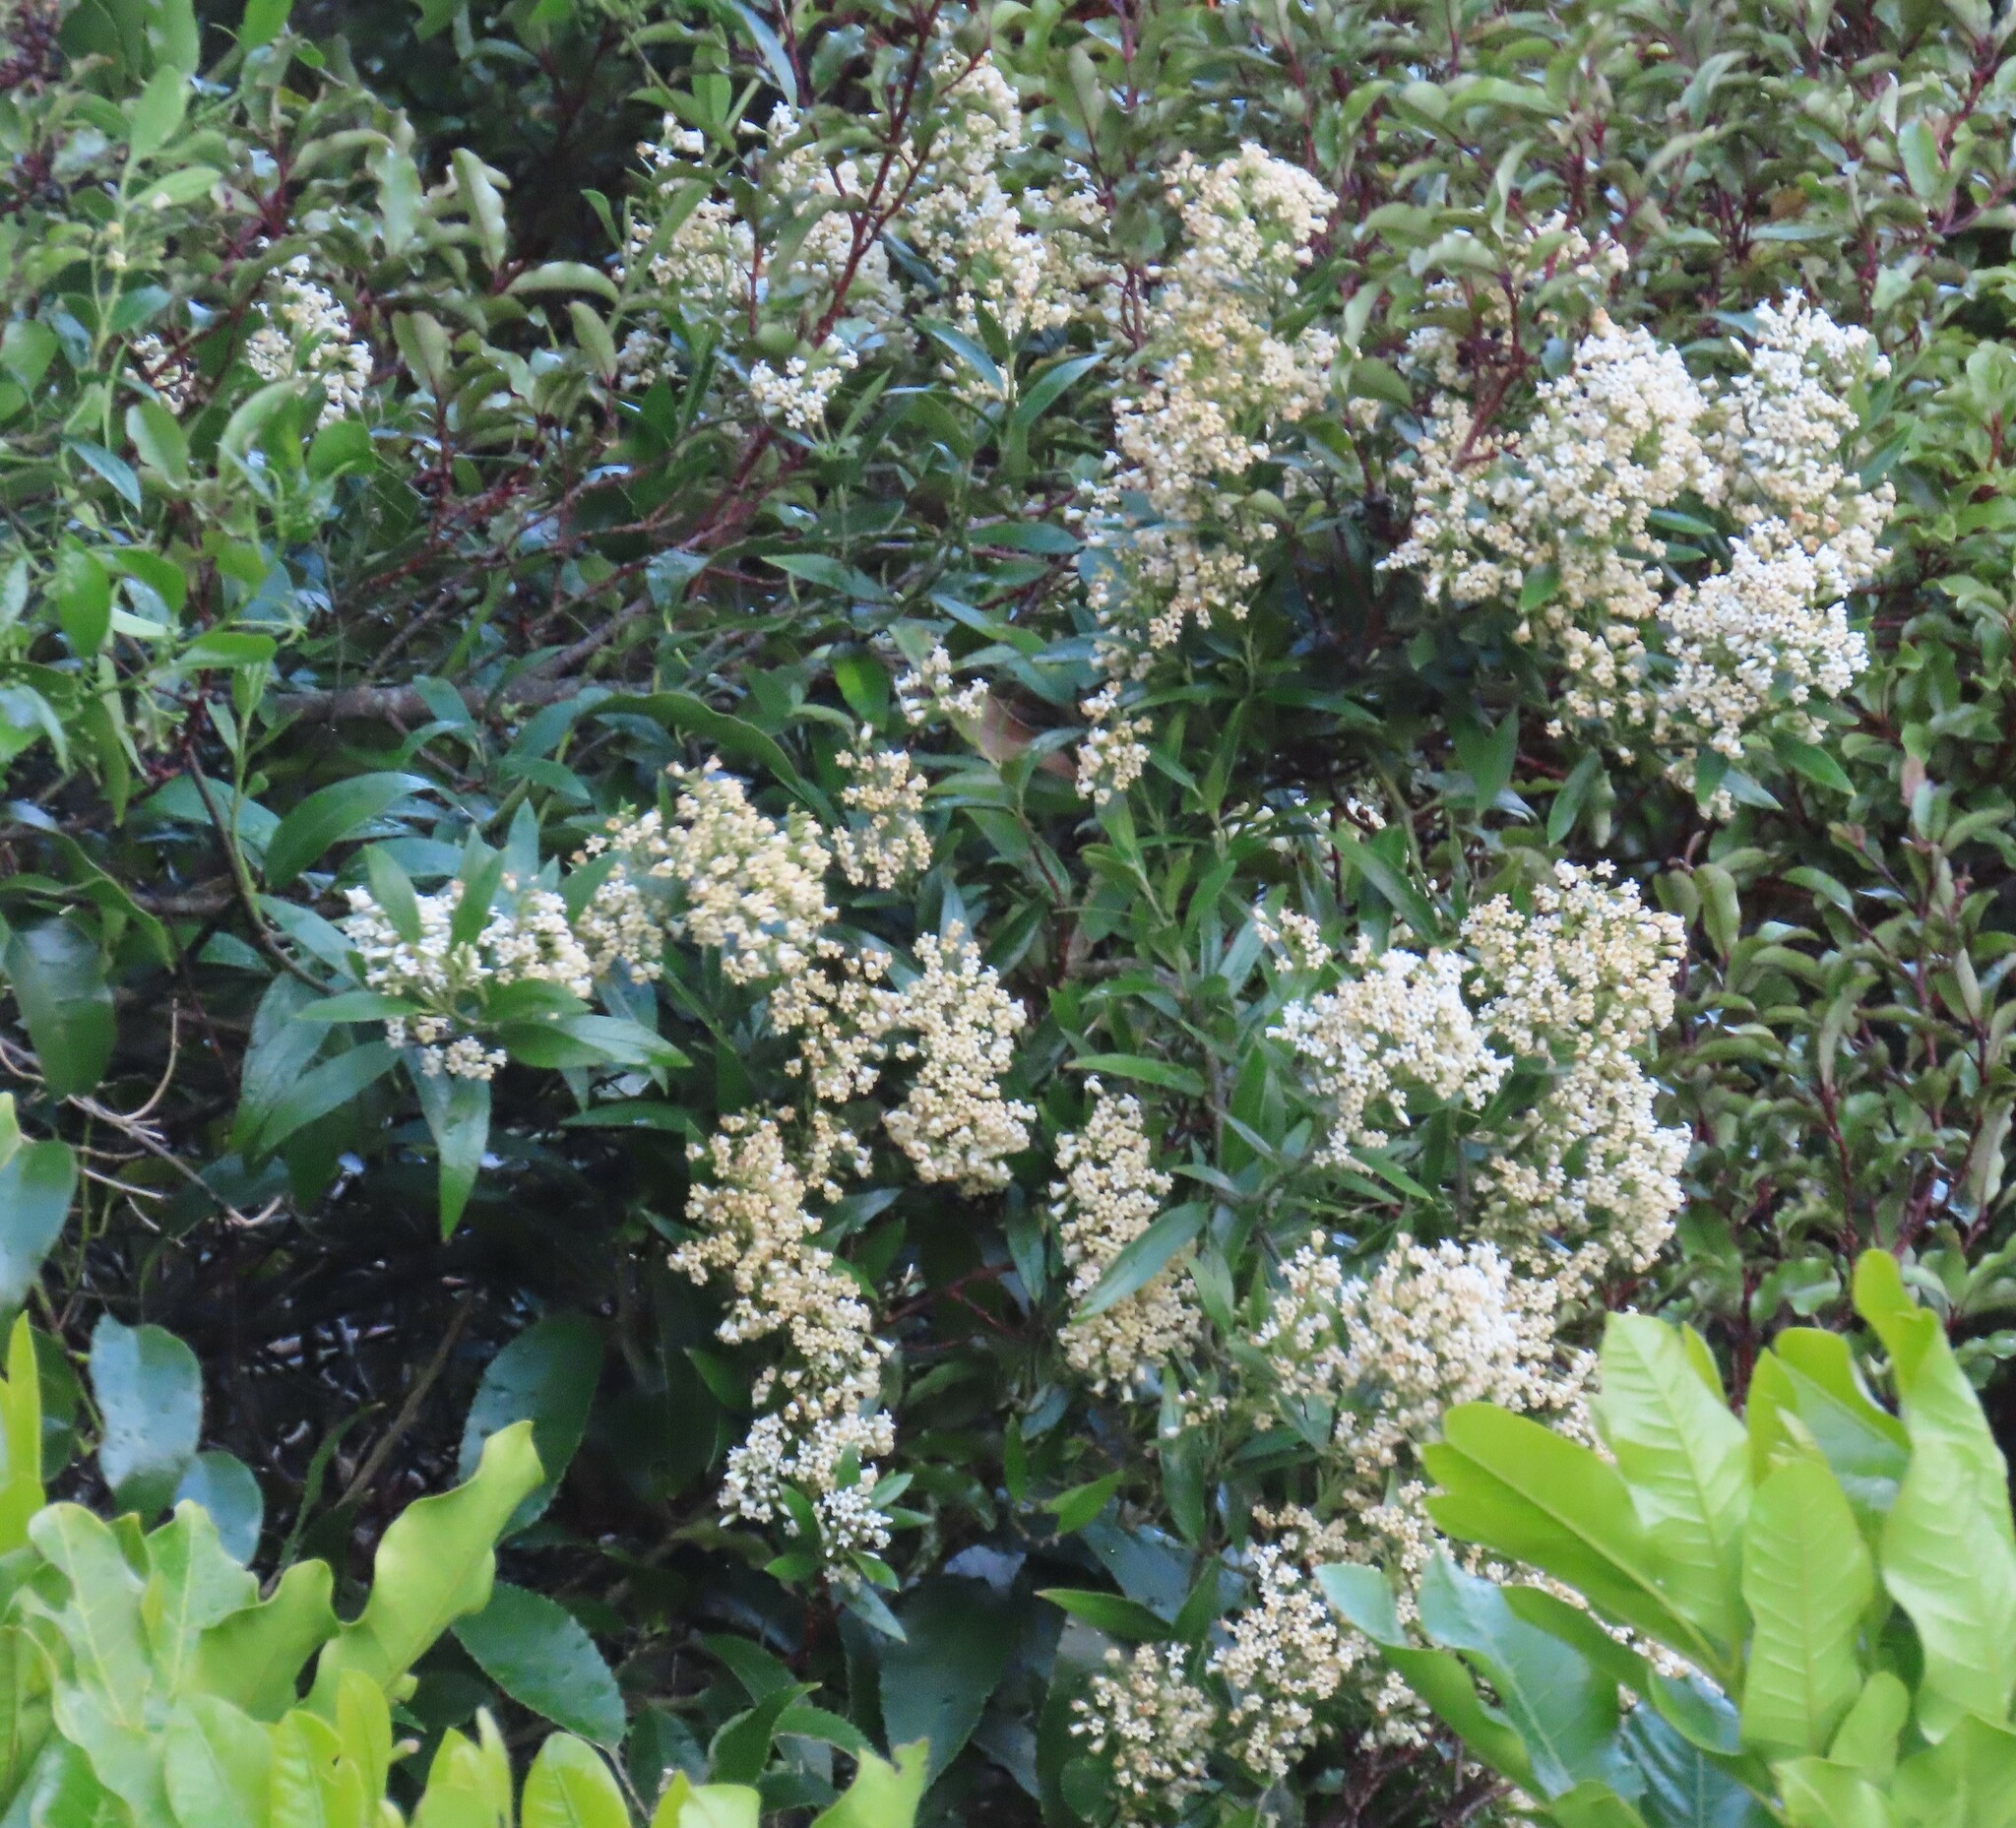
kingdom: Plantae
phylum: Tracheophyta
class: Magnoliopsida
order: Gentianales
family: Apocynaceae
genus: Parsonsia
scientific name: Parsonsia heterophylla
